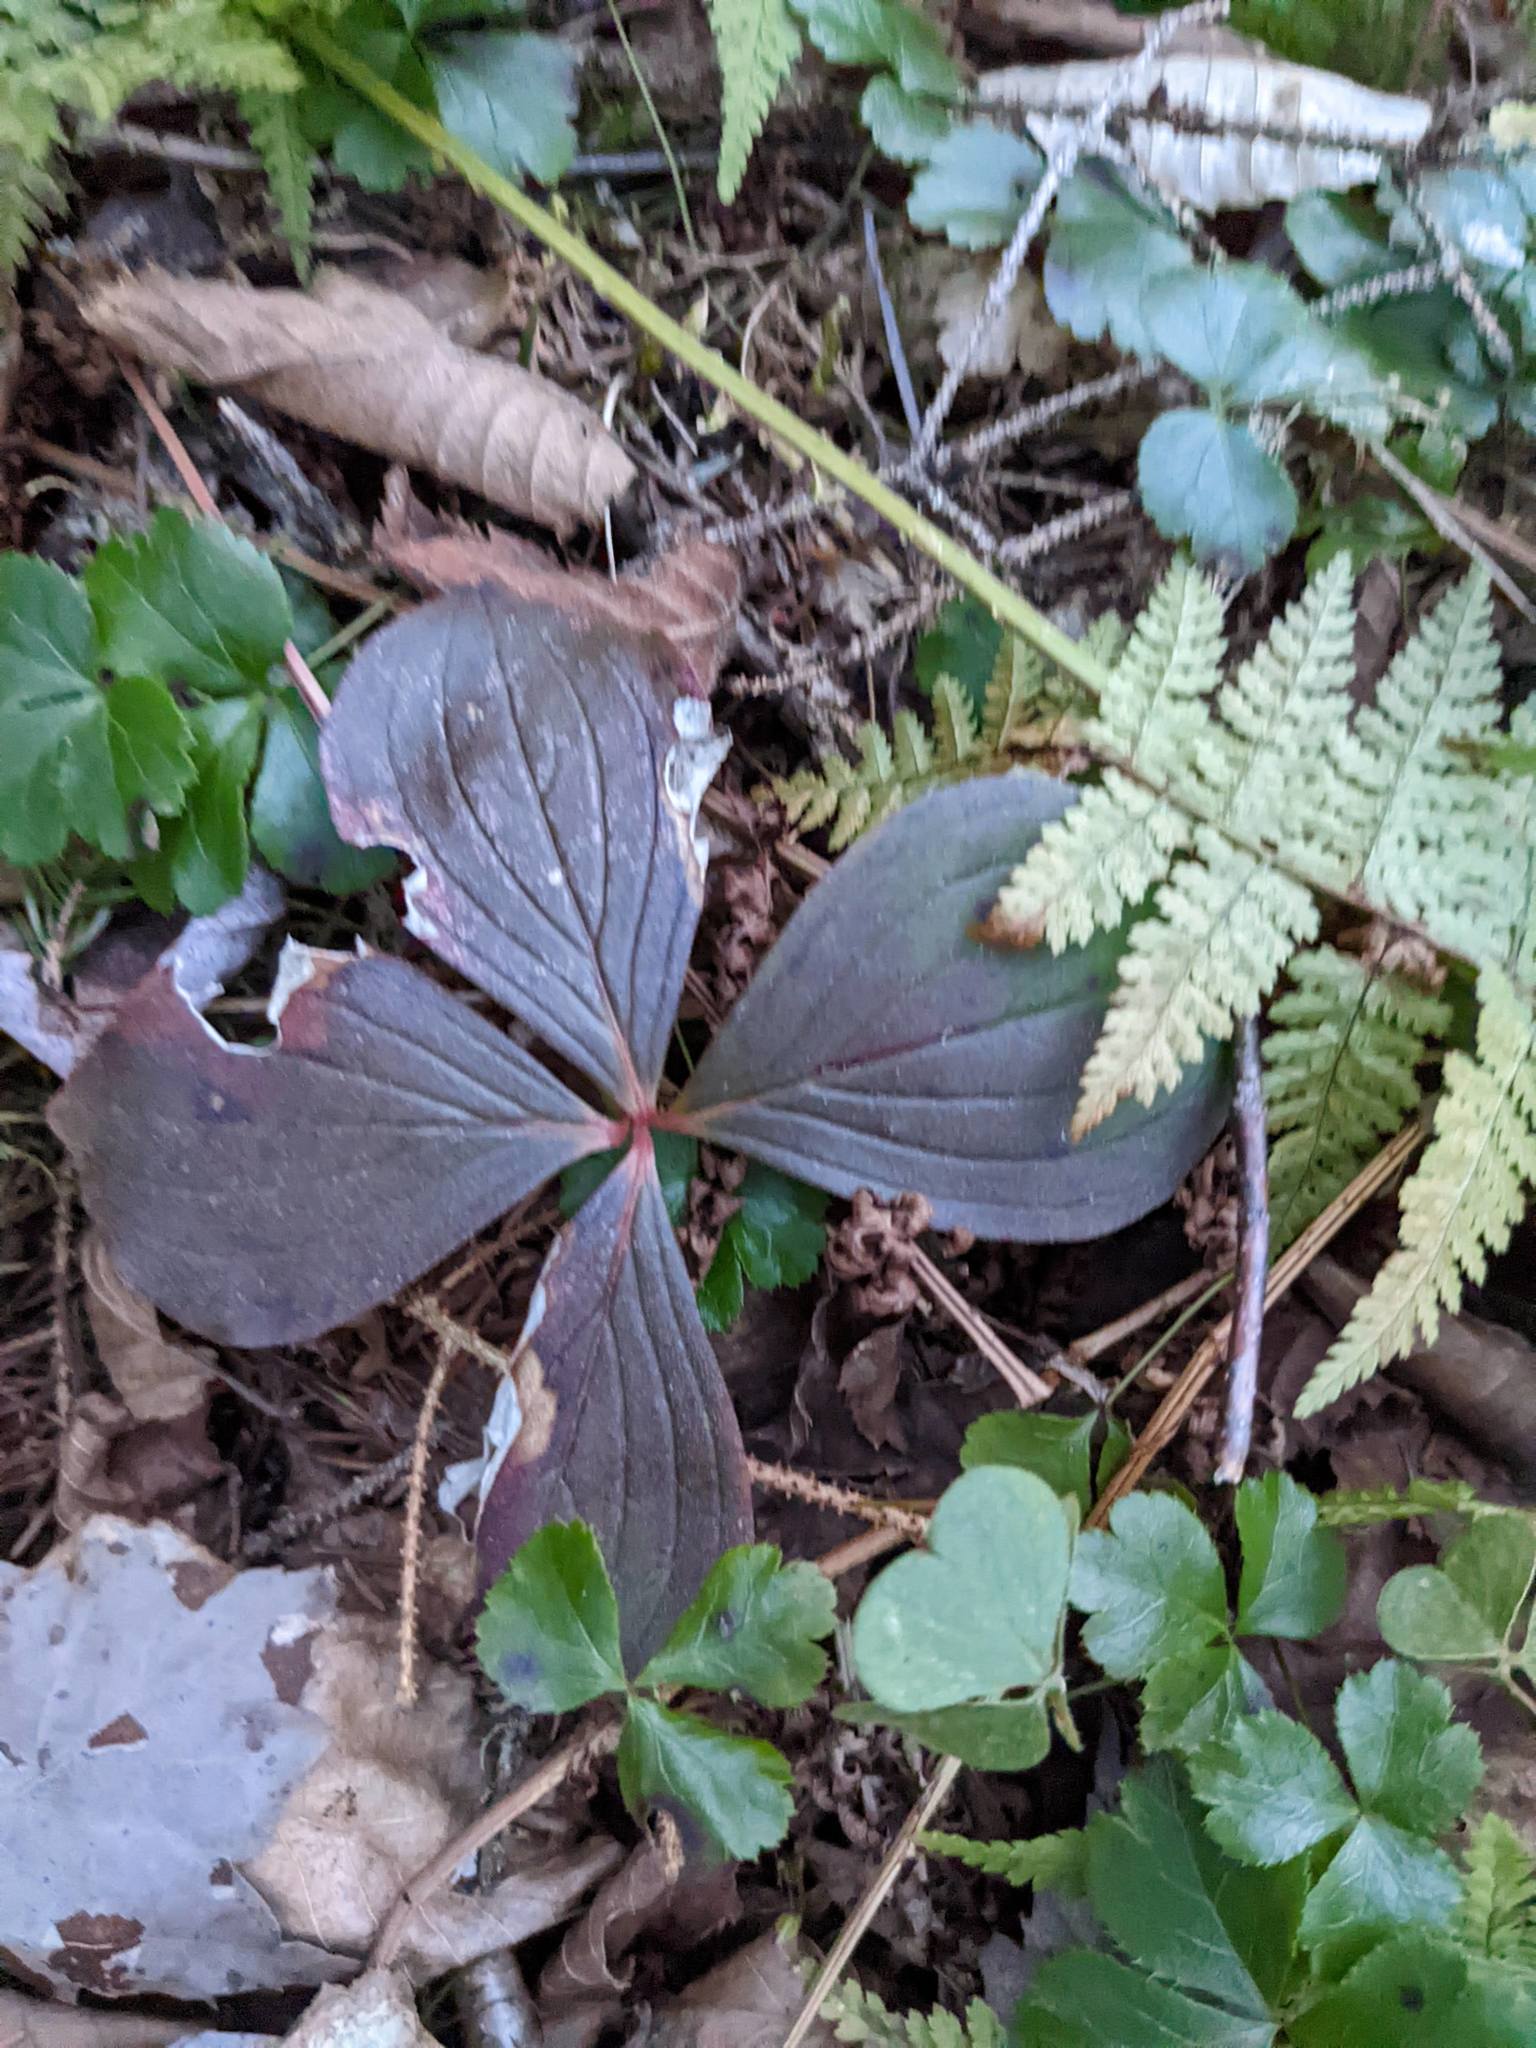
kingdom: Plantae
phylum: Tracheophyta
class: Magnoliopsida
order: Cornales
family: Cornaceae
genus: Cornus
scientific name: Cornus canadensis
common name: Creeping dogwood
